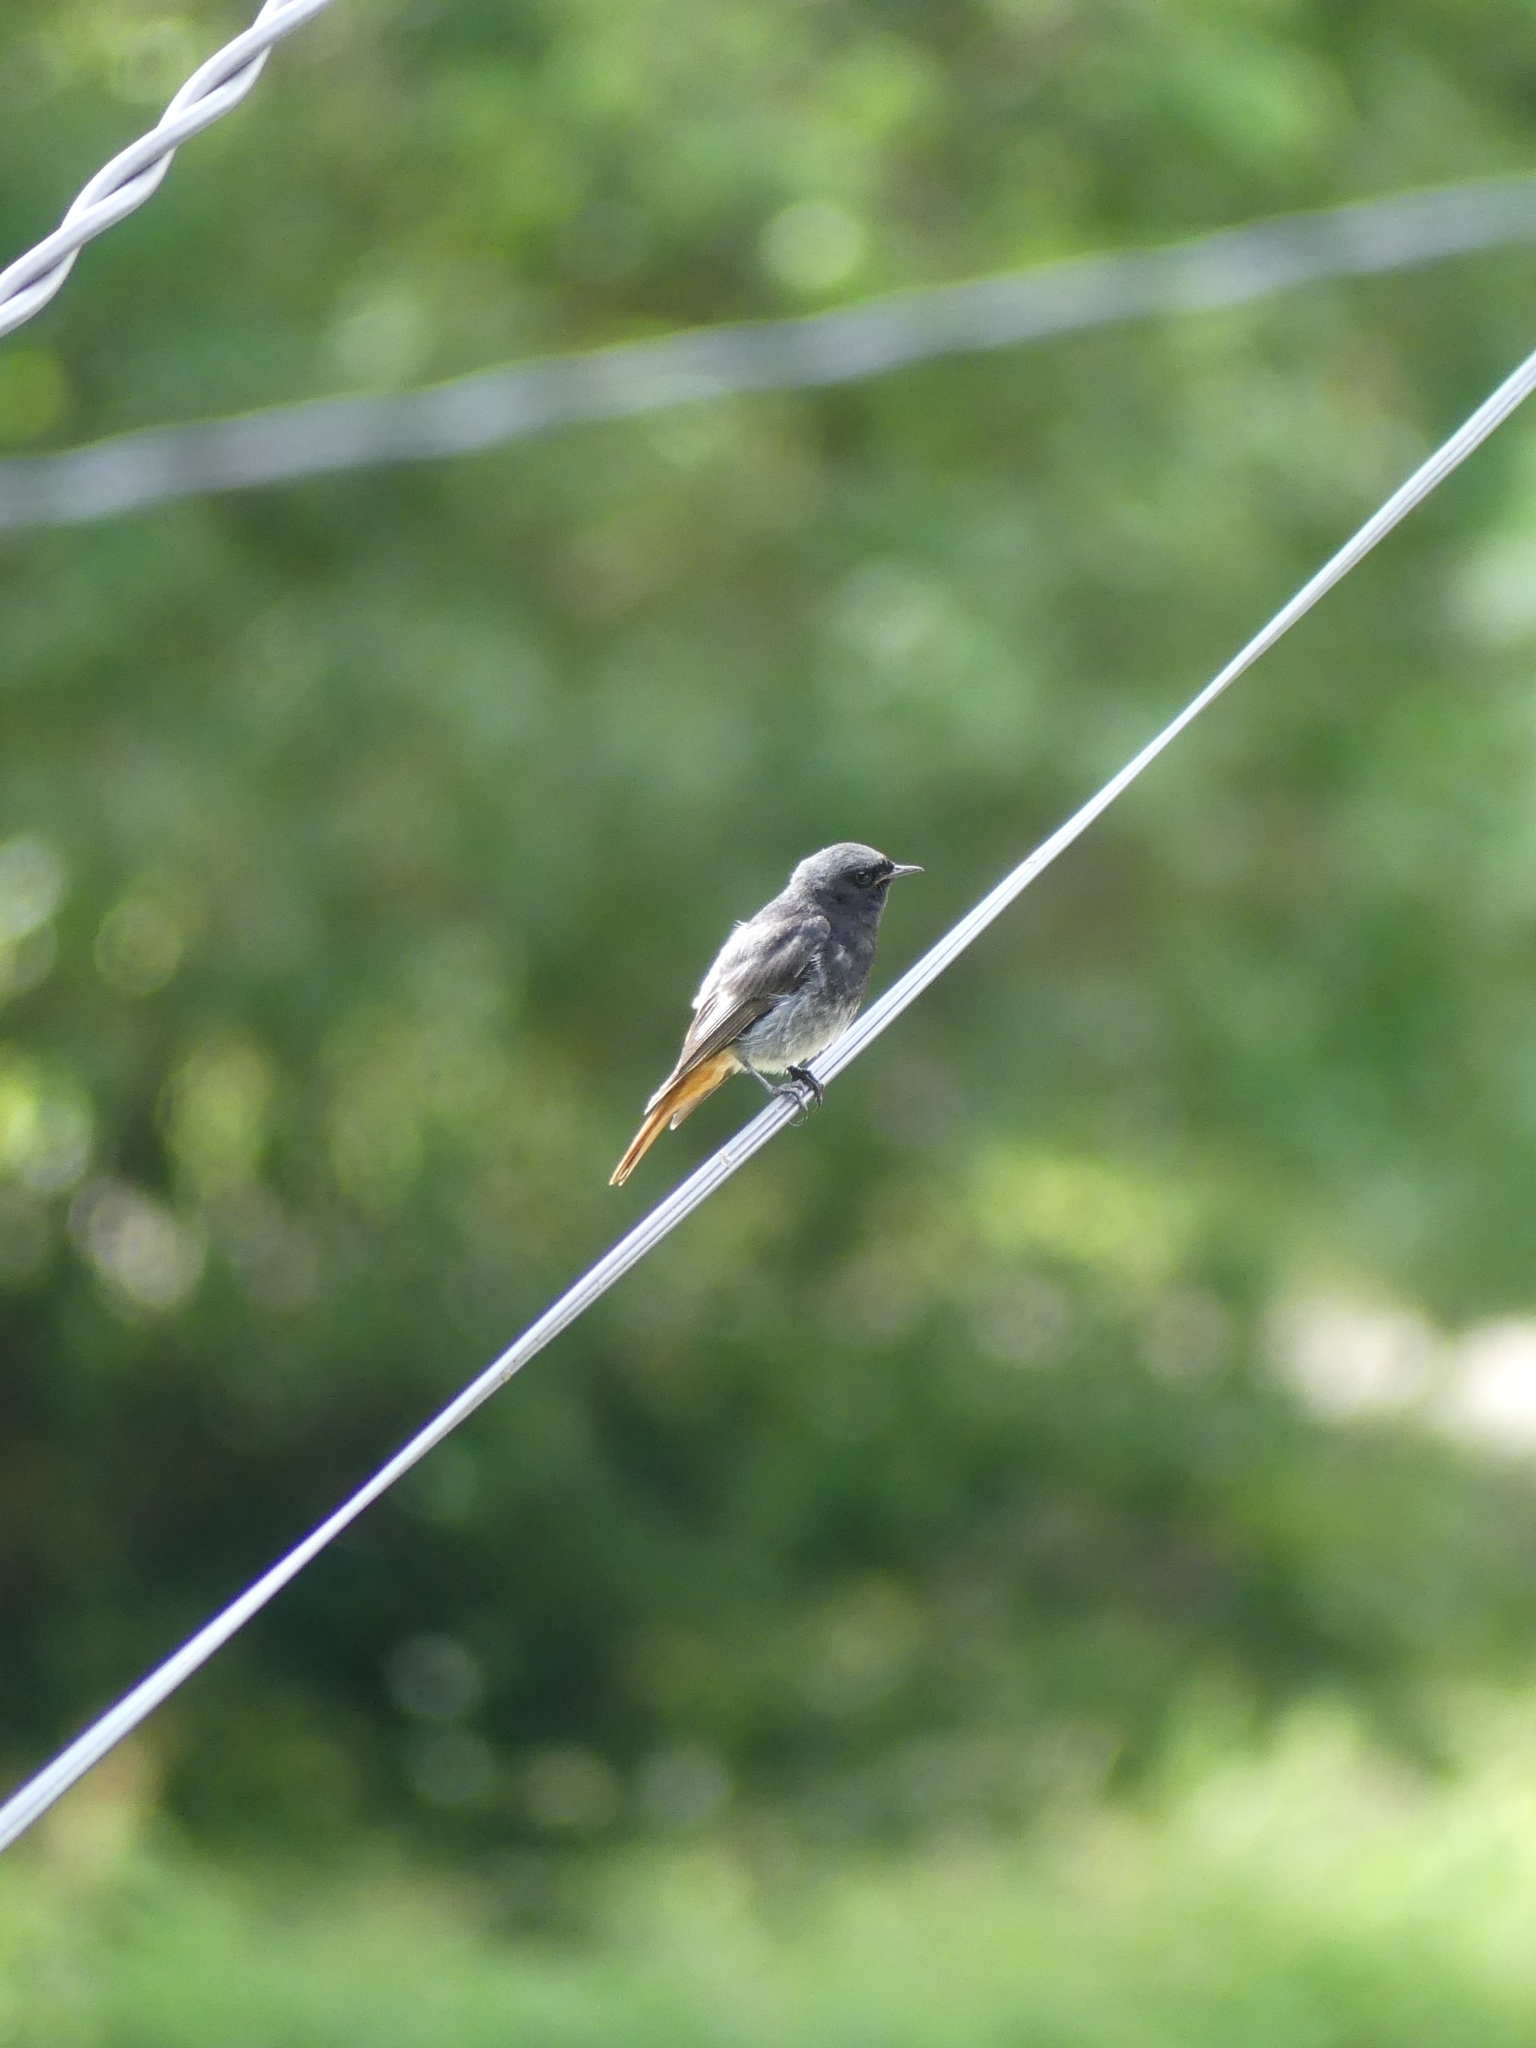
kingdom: Animalia
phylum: Chordata
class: Aves
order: Passeriformes
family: Muscicapidae
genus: Phoenicurus
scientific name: Phoenicurus ochruros
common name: Black redstart
